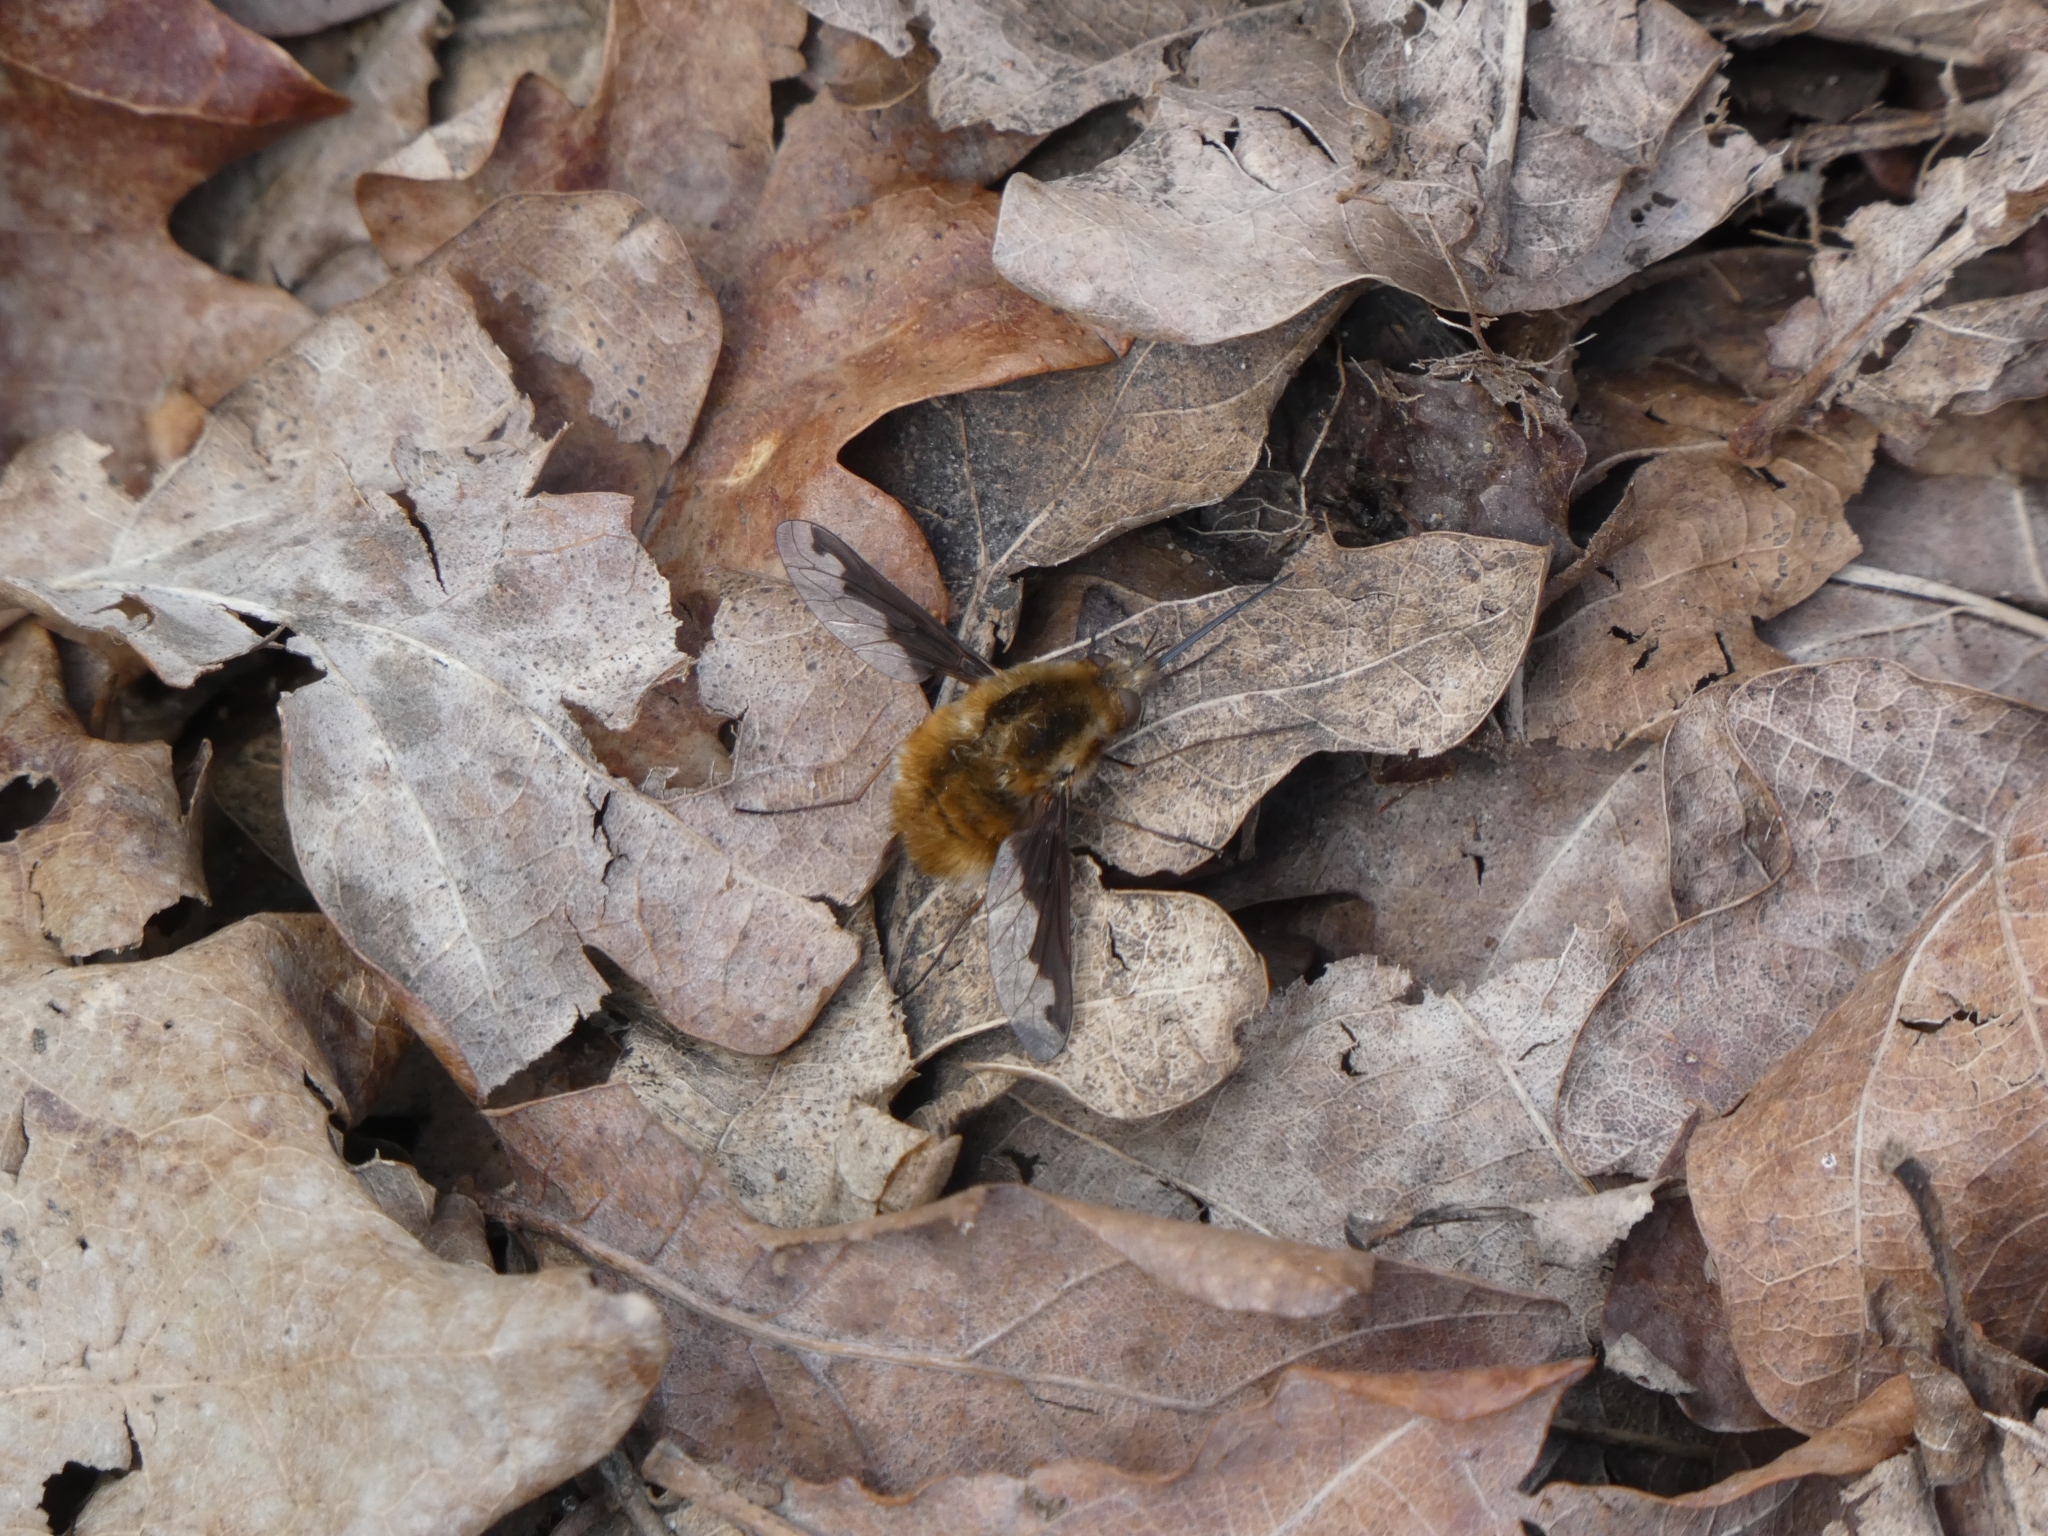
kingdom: Animalia
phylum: Arthropoda
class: Insecta
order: Diptera
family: Bombyliidae
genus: Bombylius
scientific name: Bombylius major
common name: Bee fly
